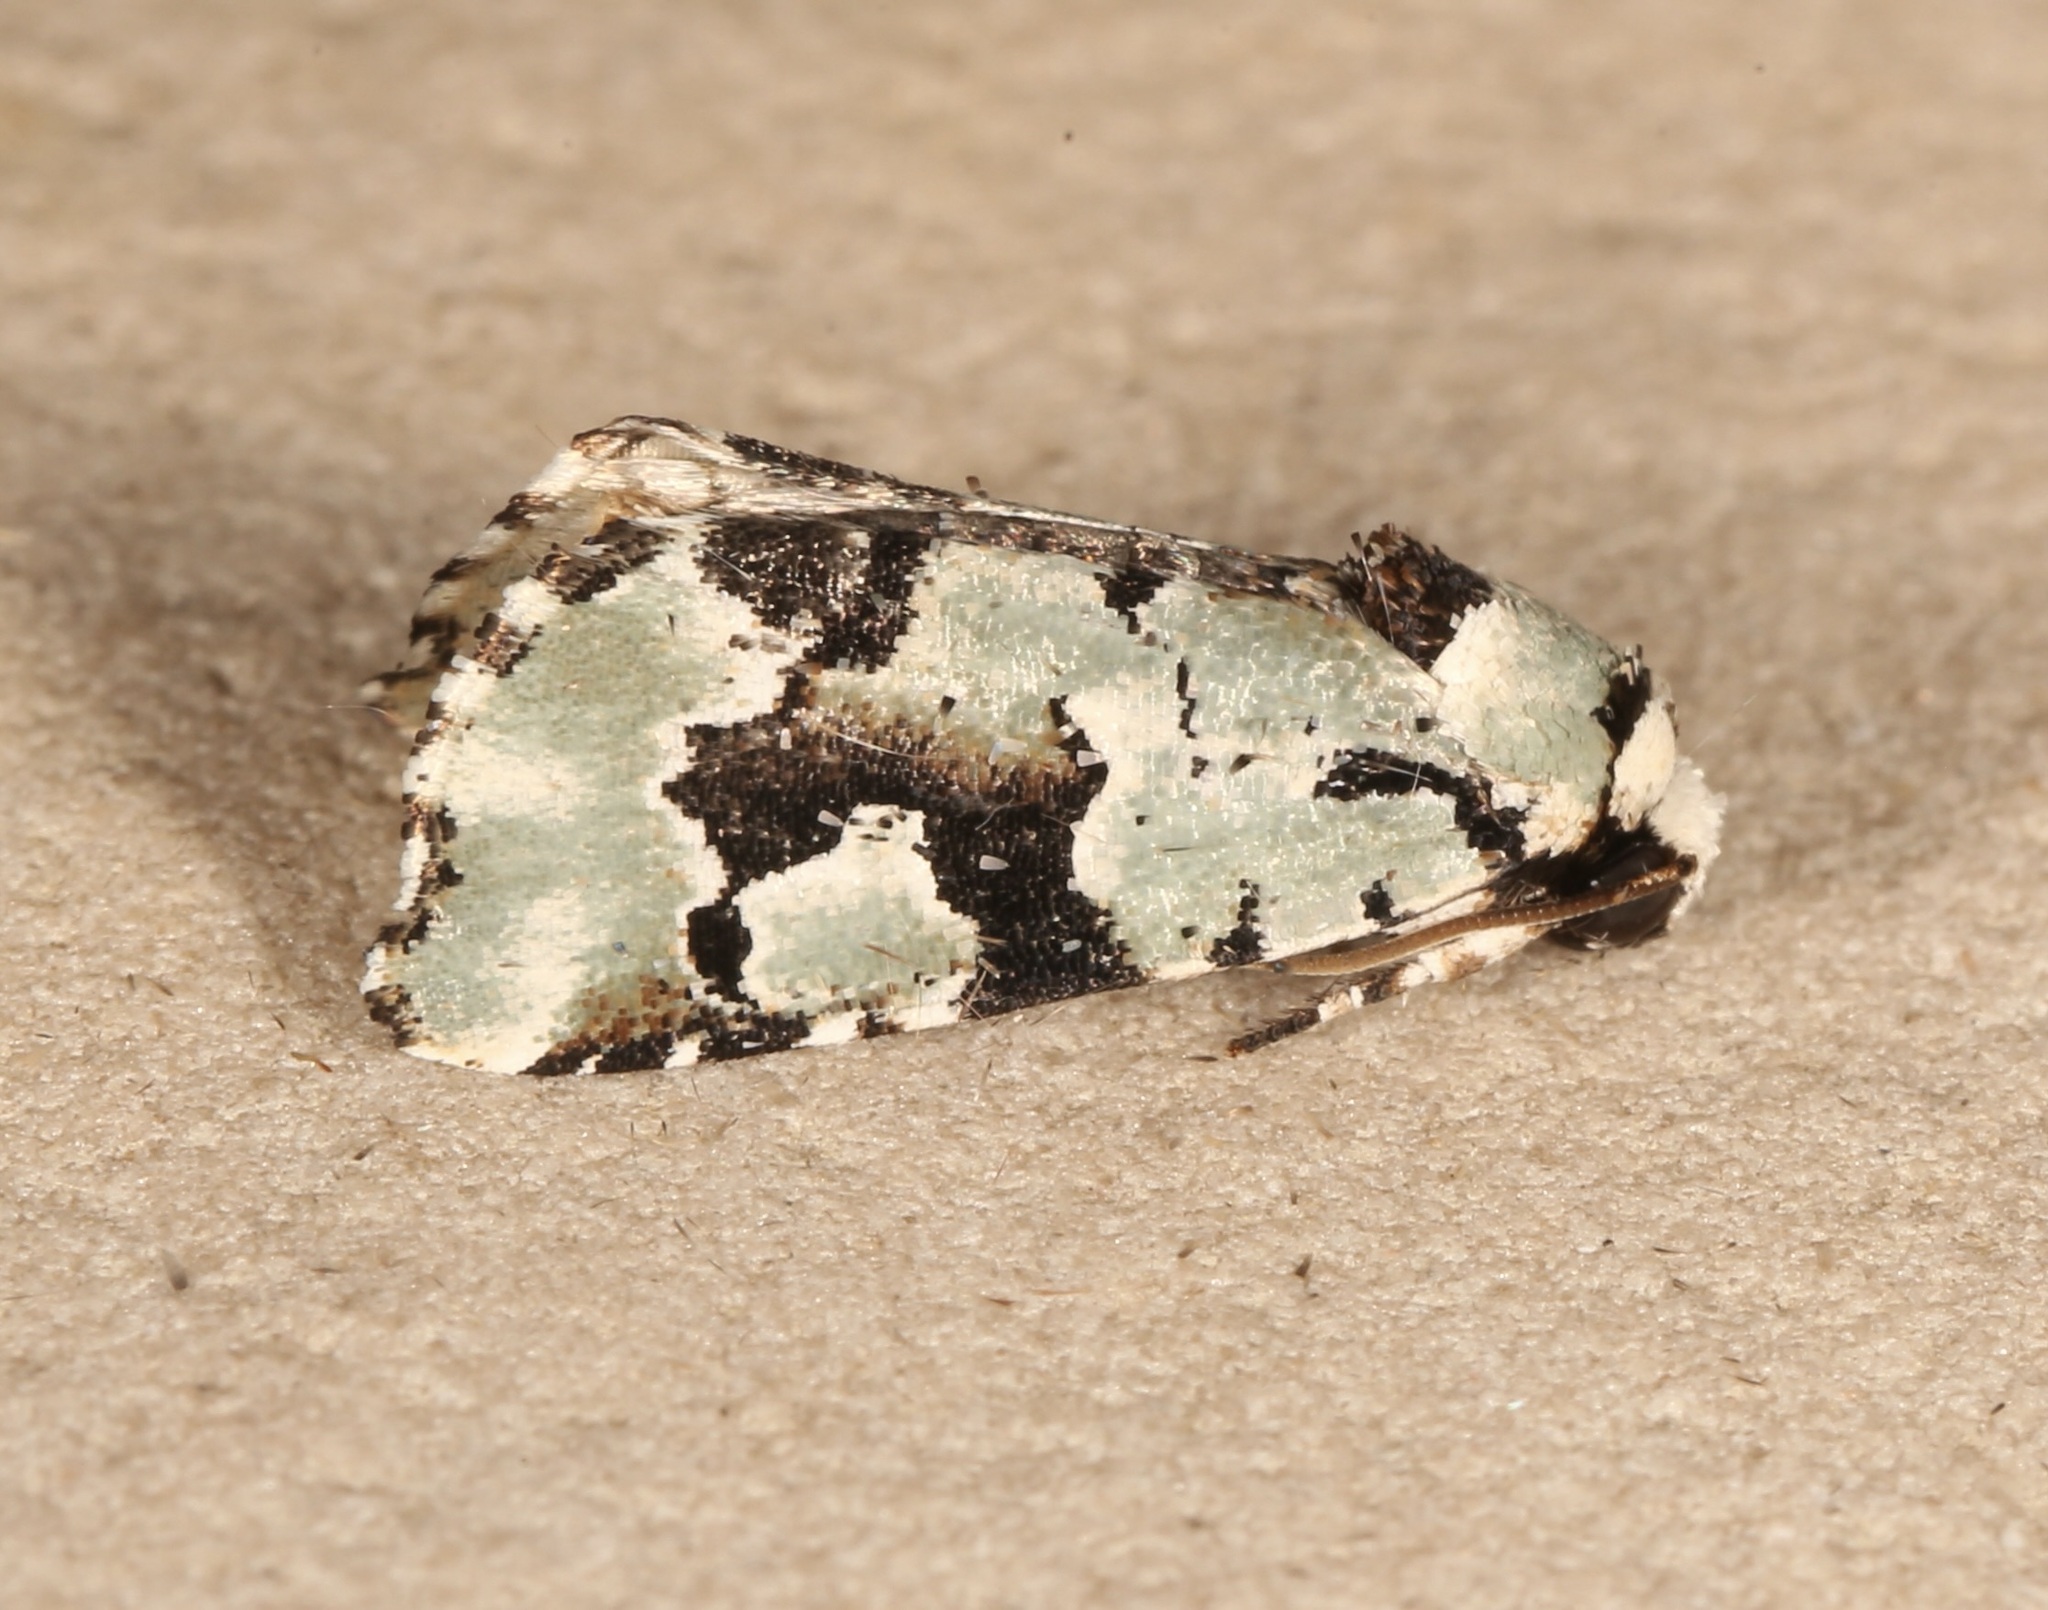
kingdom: Animalia
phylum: Arthropoda
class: Insecta
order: Lepidoptera
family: Noctuidae
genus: Emarginea
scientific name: Emarginea percara
